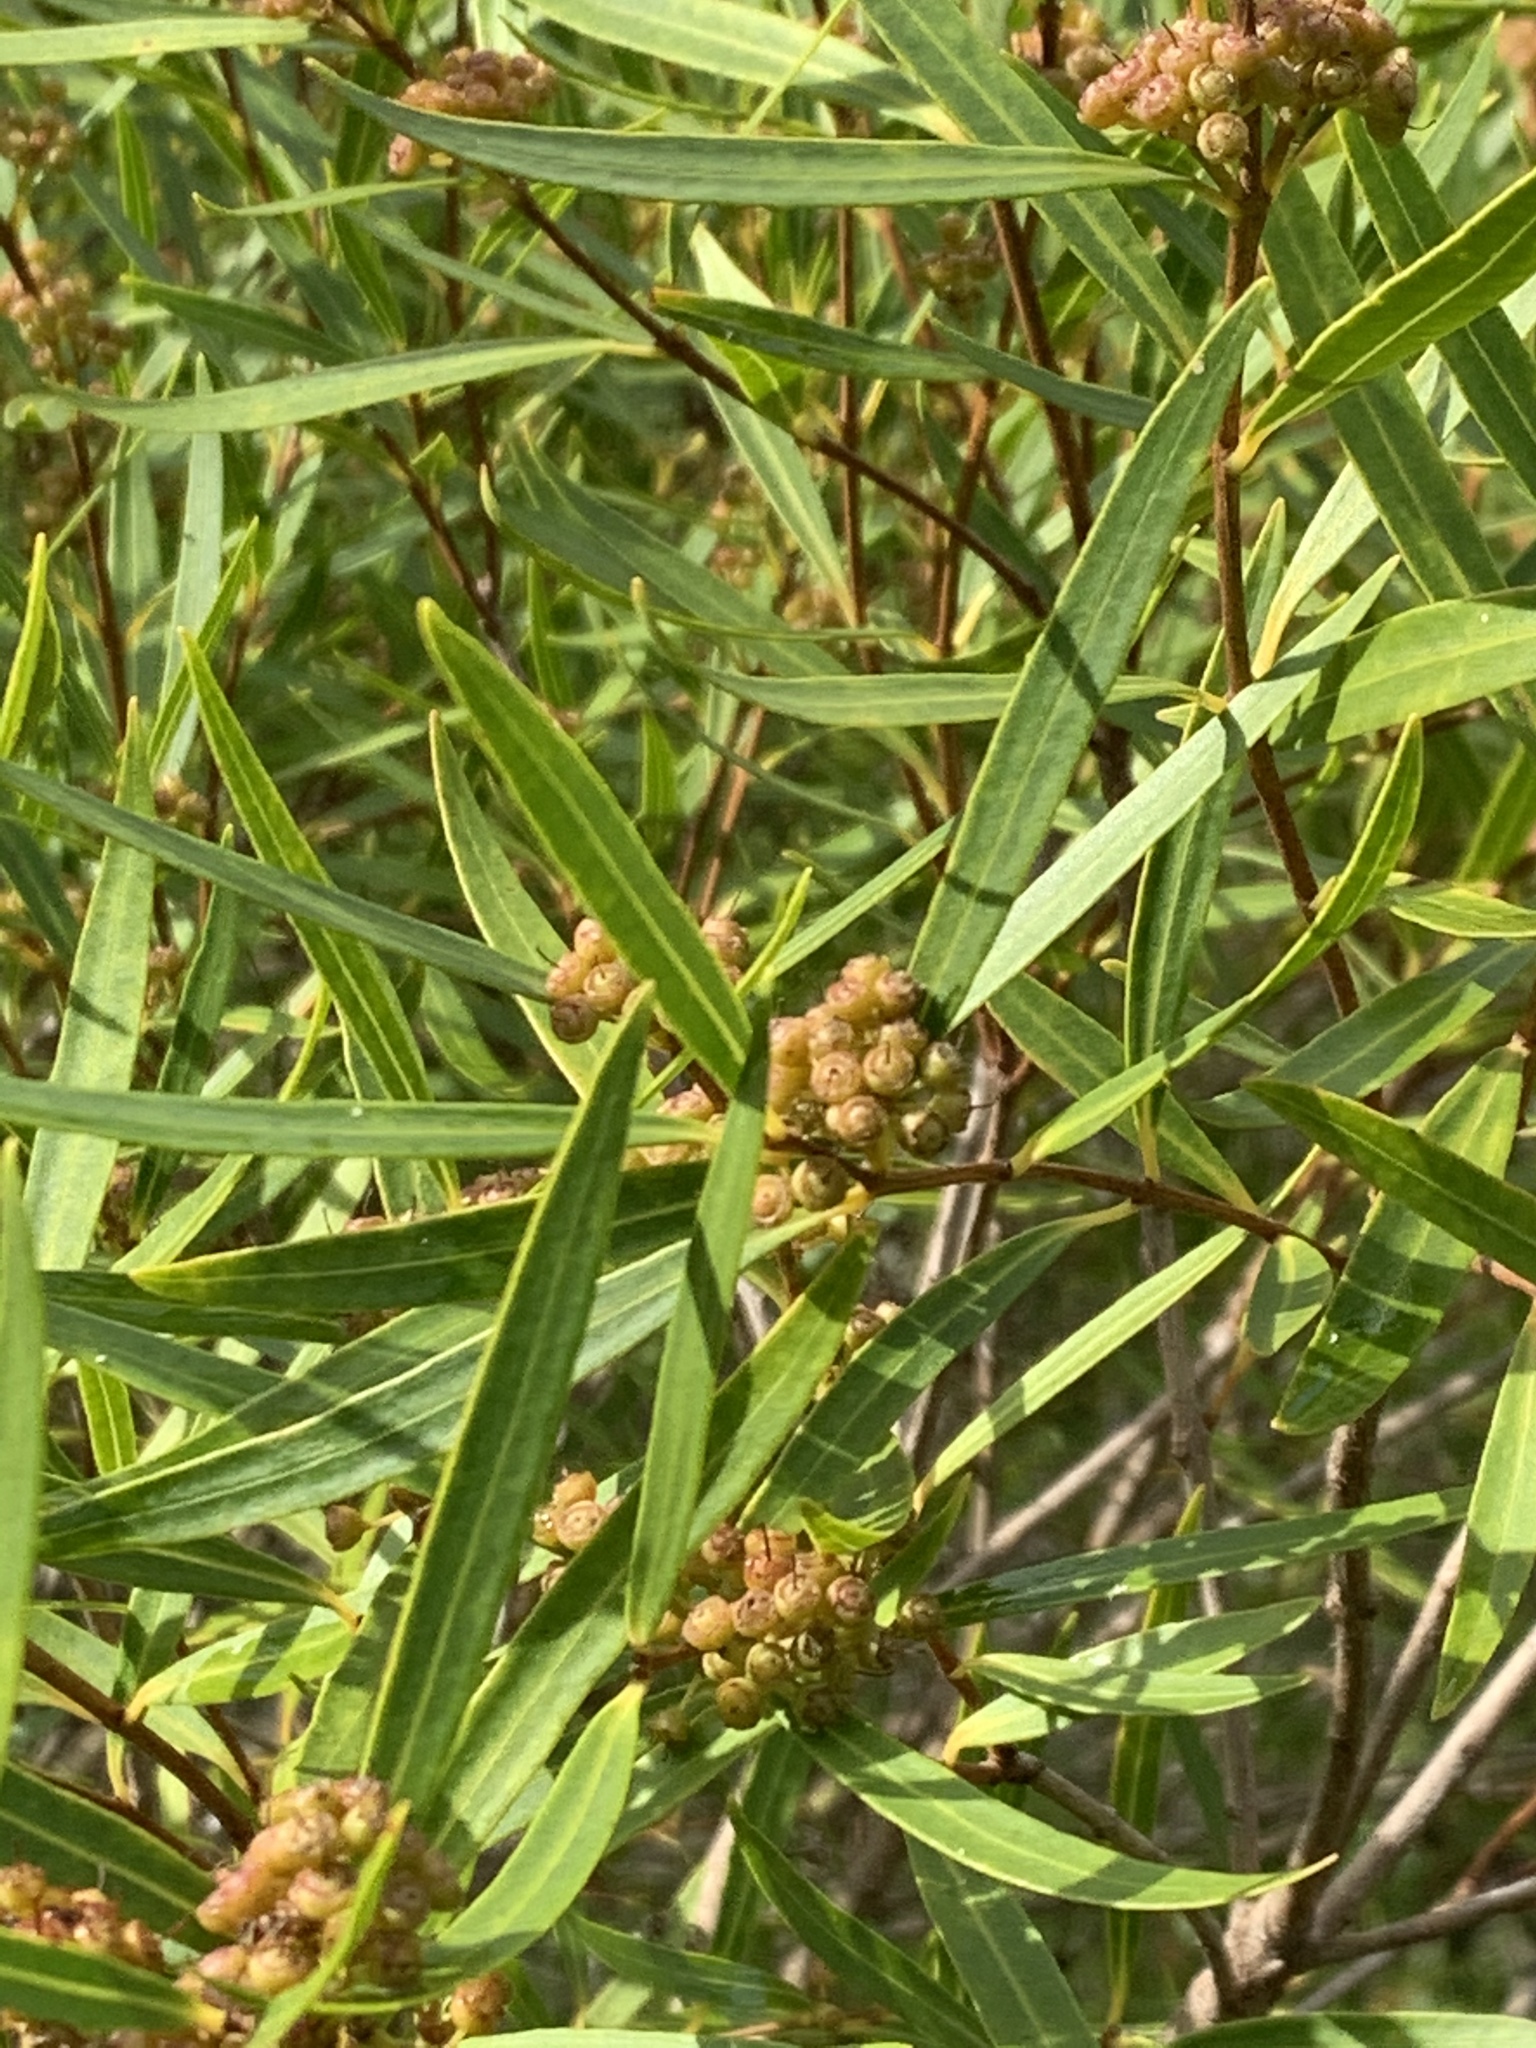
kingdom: Plantae
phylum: Tracheophyta
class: Magnoliopsida
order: Myrtales
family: Myrtaceae
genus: Callistemon
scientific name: Callistemon lanceolatus
